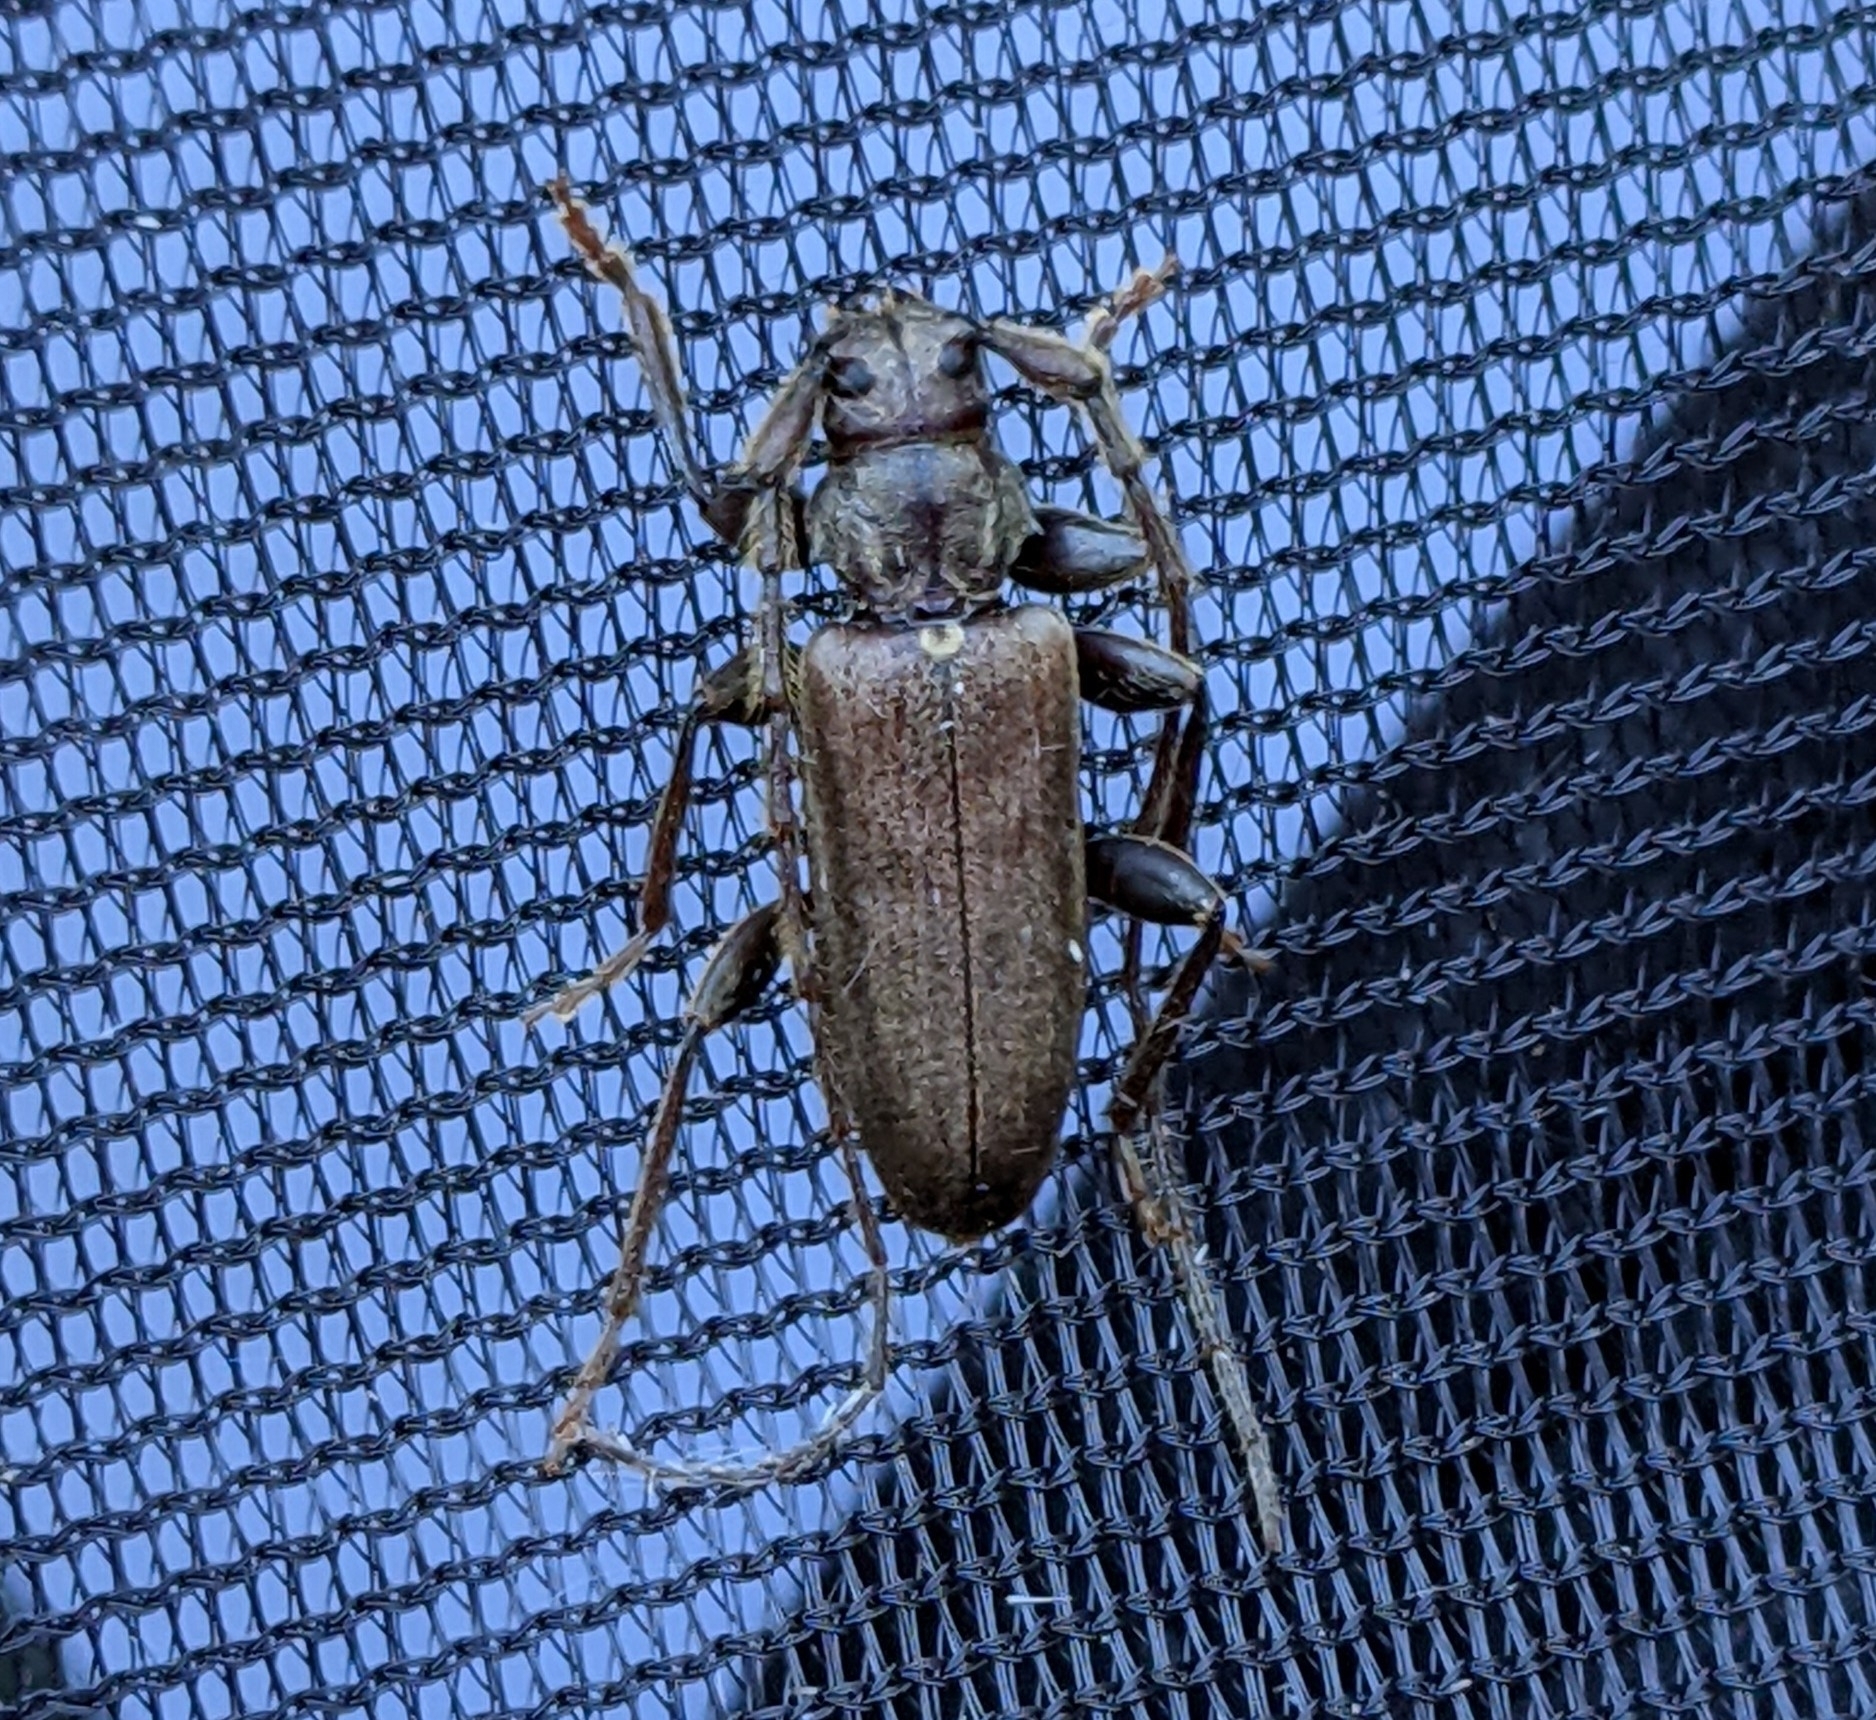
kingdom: Animalia
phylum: Arthropoda
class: Insecta
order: Coleoptera
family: Cerambycidae
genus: Opsimus
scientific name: Opsimus quadrilineatus
